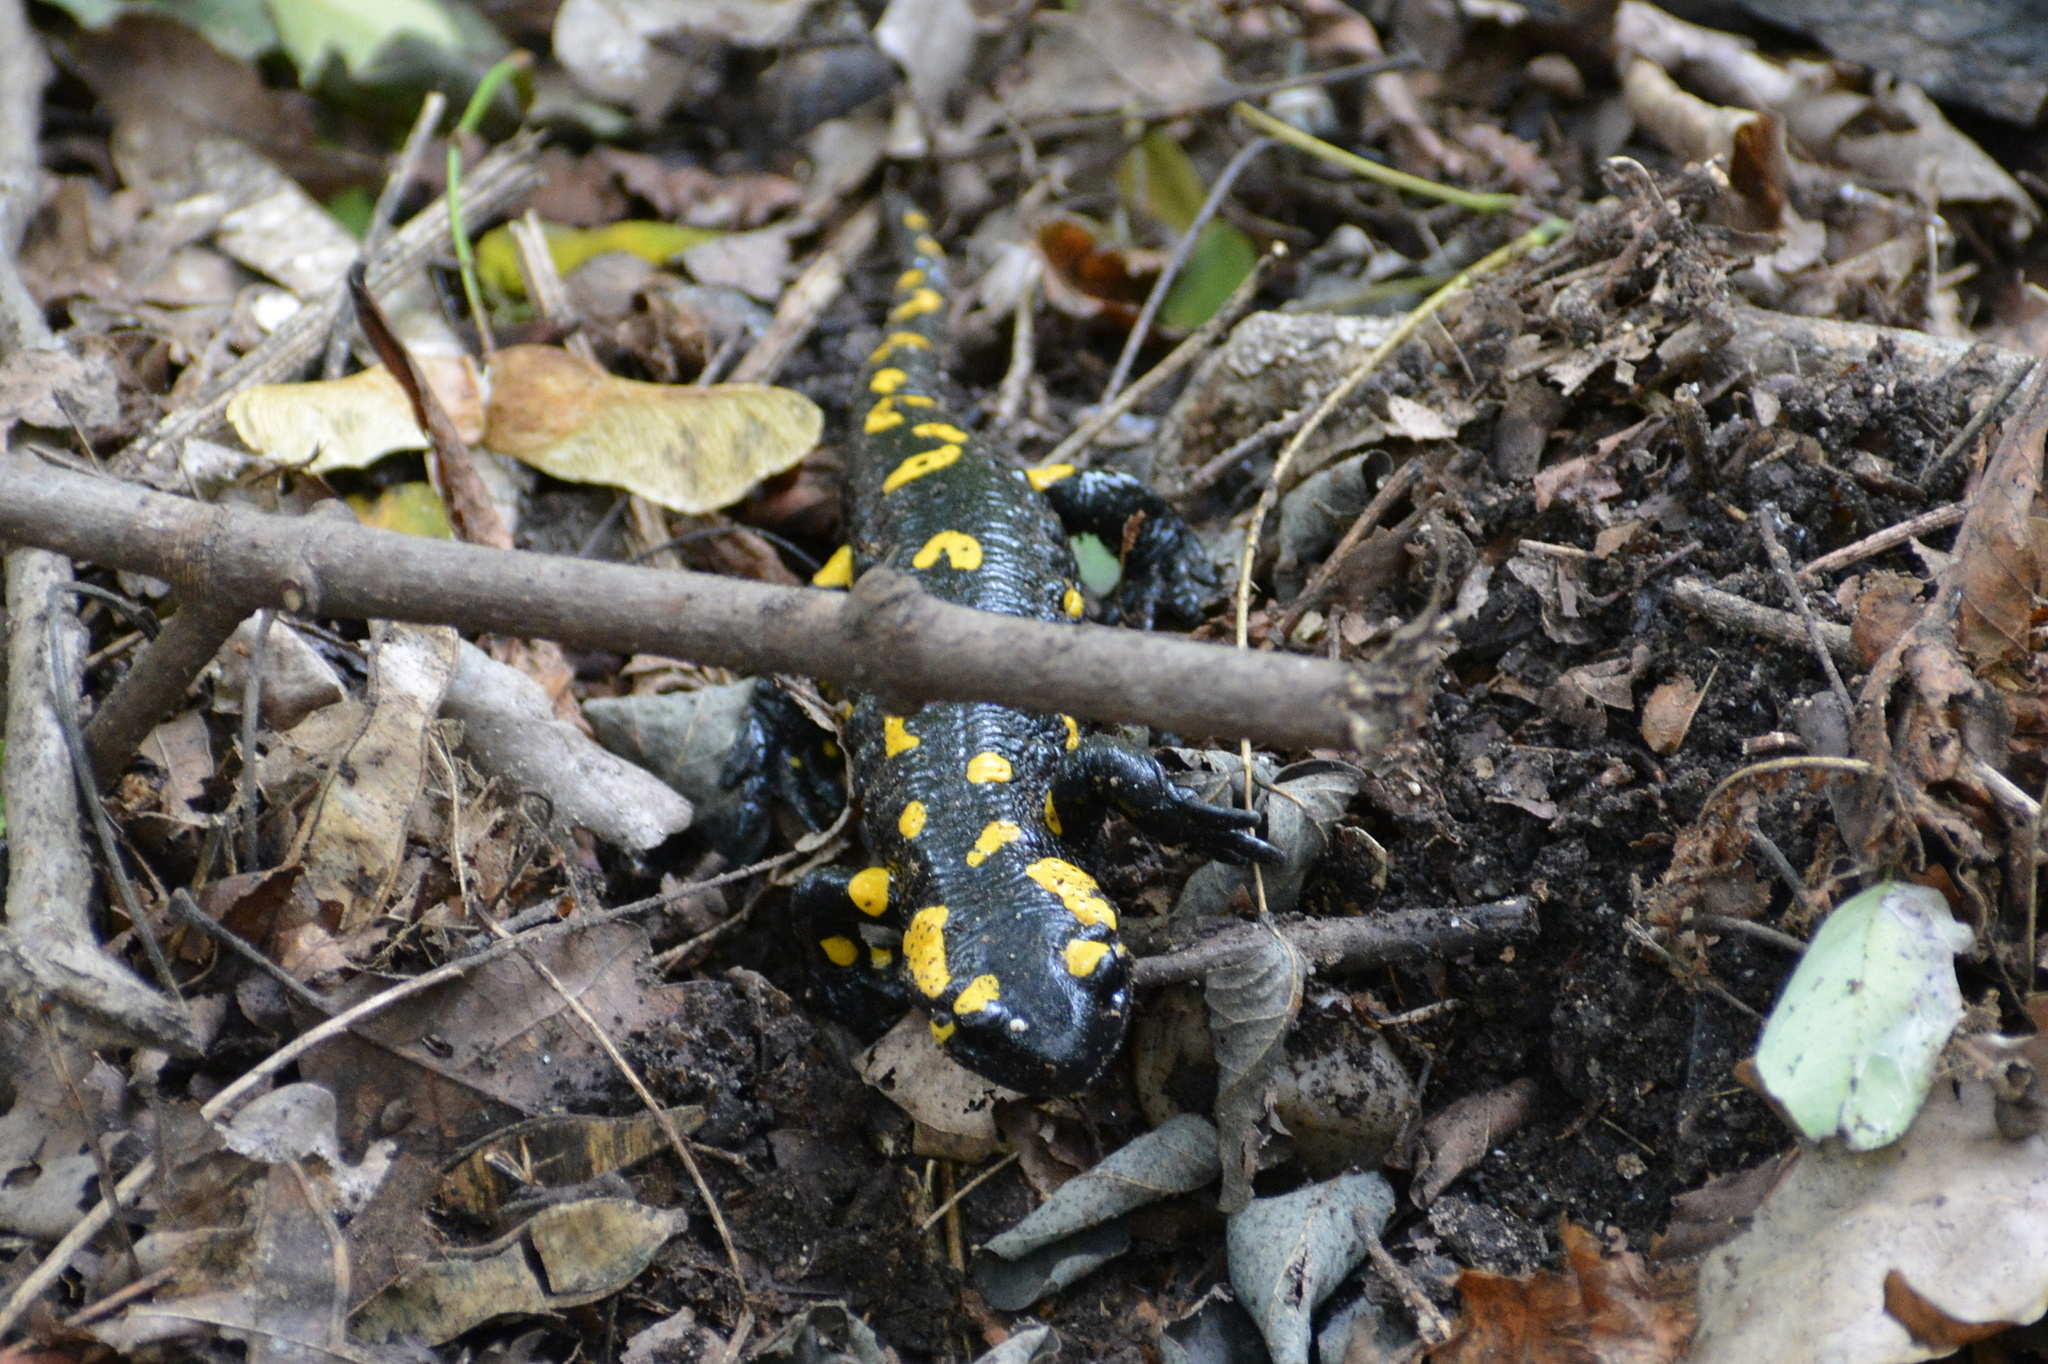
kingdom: Animalia
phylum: Chordata
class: Amphibia
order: Caudata
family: Salamandridae
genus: Salamandra
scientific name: Salamandra salamandra
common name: Fire salamander
